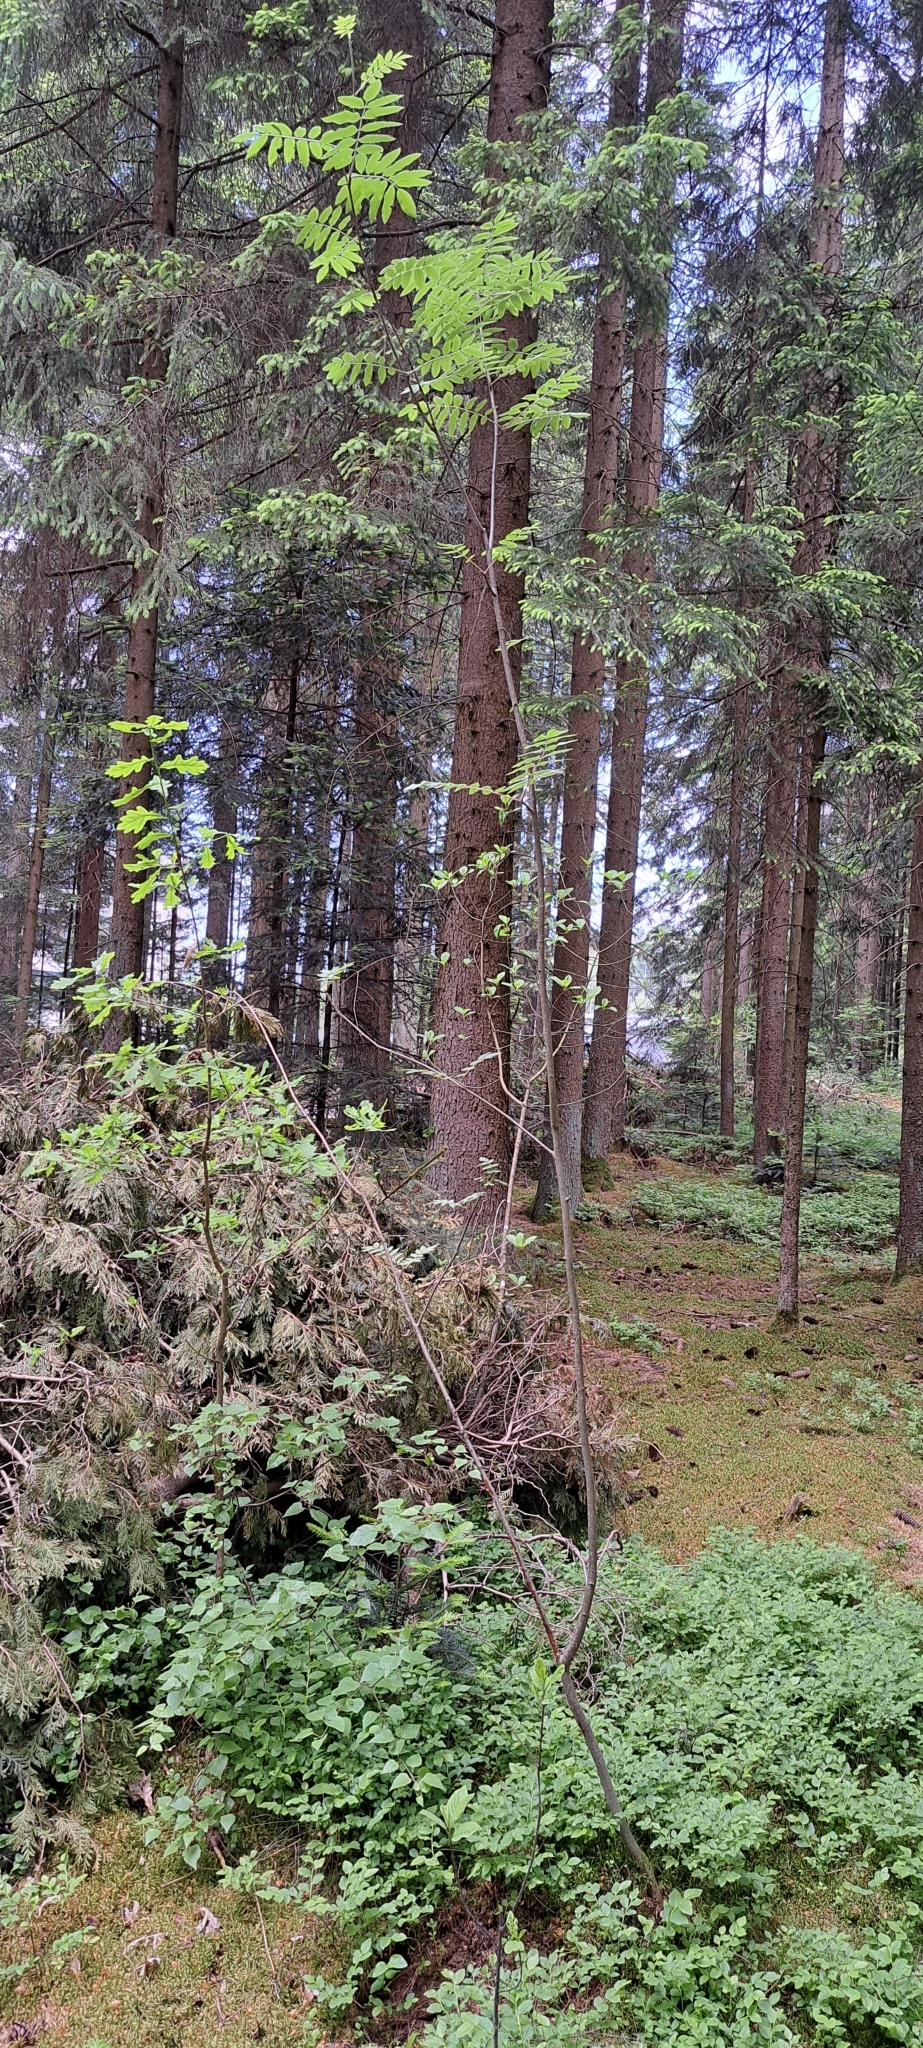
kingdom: Plantae
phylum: Tracheophyta
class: Magnoliopsida
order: Rosales
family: Rosaceae
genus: Sorbus
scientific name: Sorbus aucuparia
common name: Rowan
